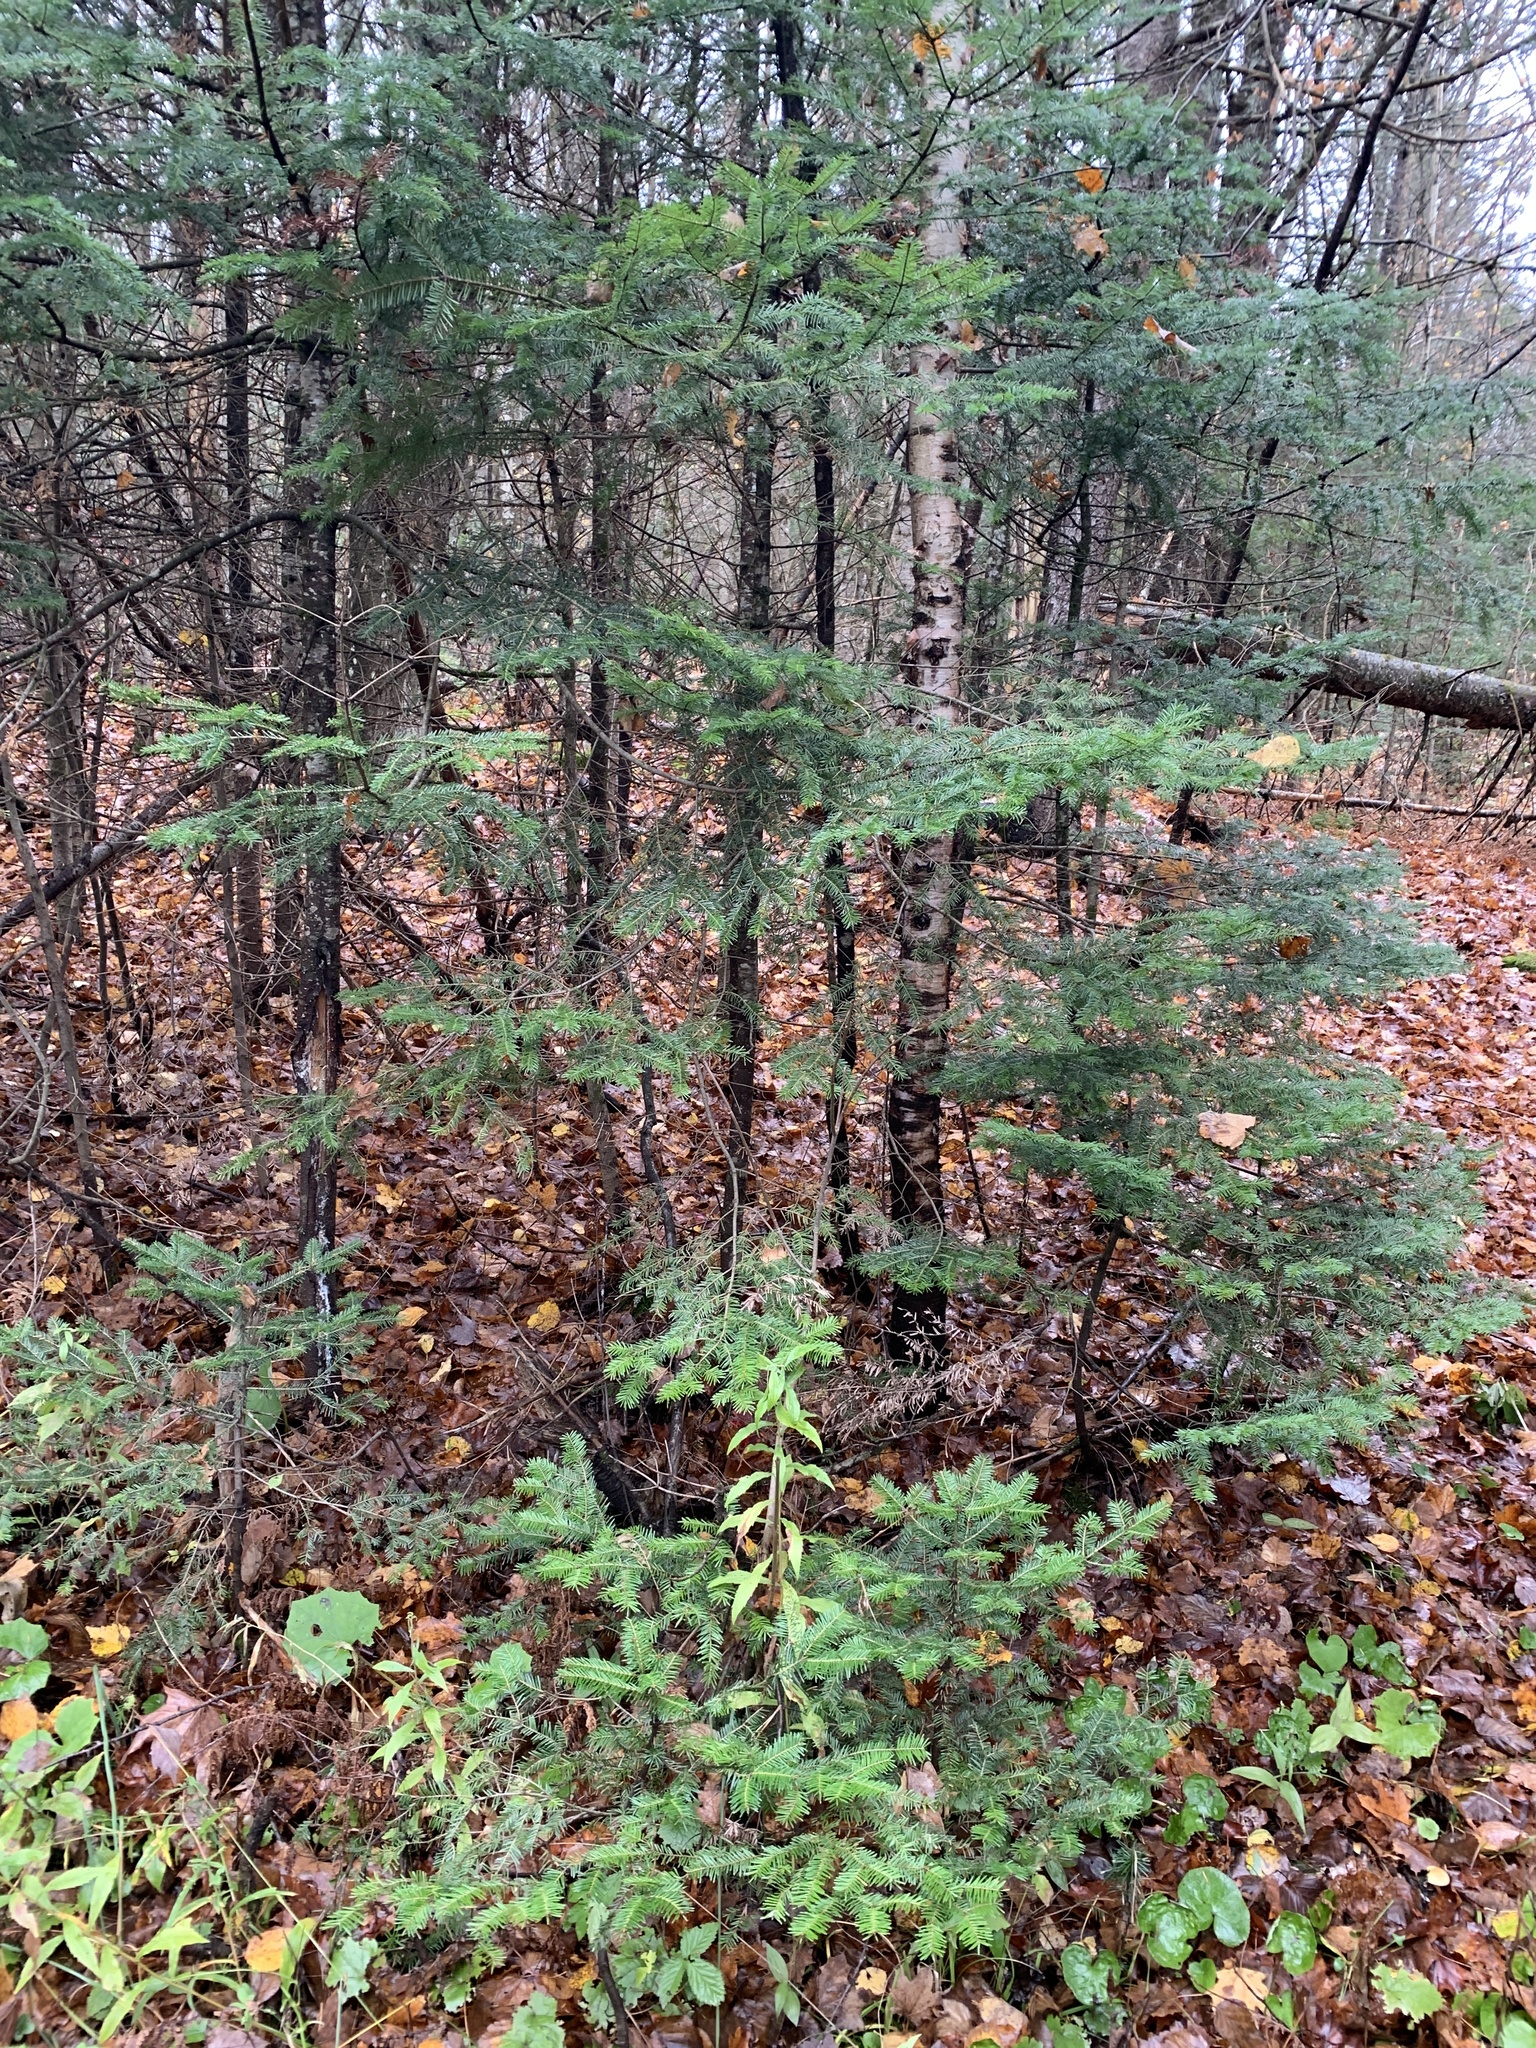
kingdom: Plantae
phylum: Tracheophyta
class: Pinopsida
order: Pinales
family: Pinaceae
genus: Abies
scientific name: Abies balsamea
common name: Balsam fir
